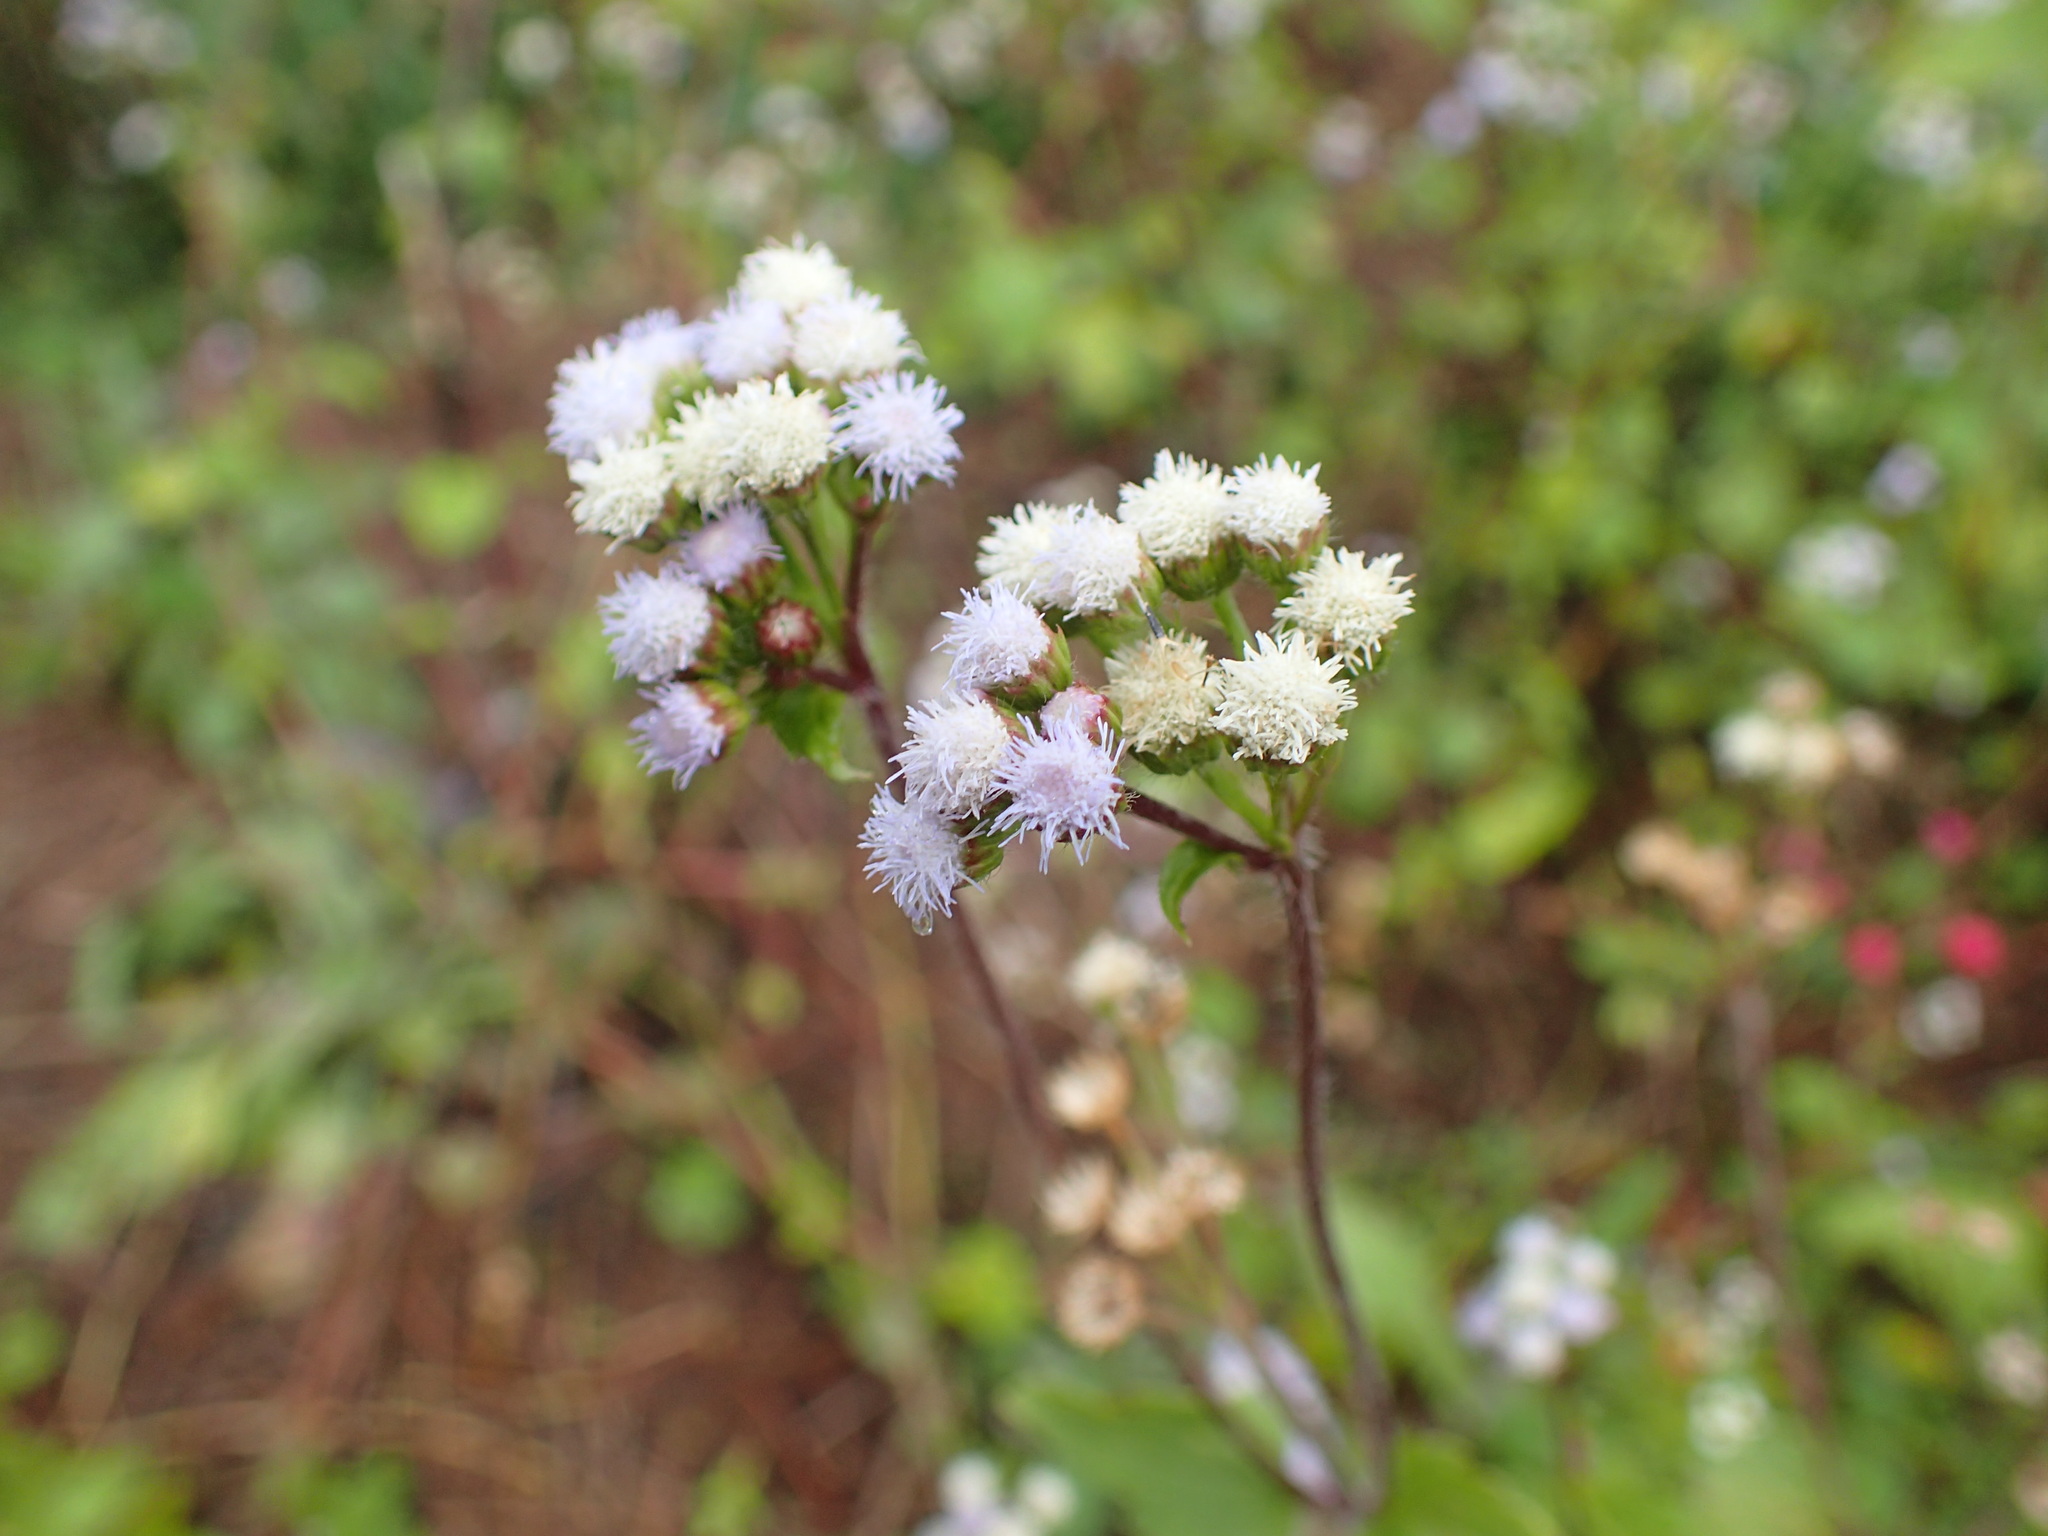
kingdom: Plantae
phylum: Tracheophyta
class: Magnoliopsida
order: Asterales
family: Asteraceae
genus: Ageratum
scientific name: Ageratum houstonianum
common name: Bluemink
